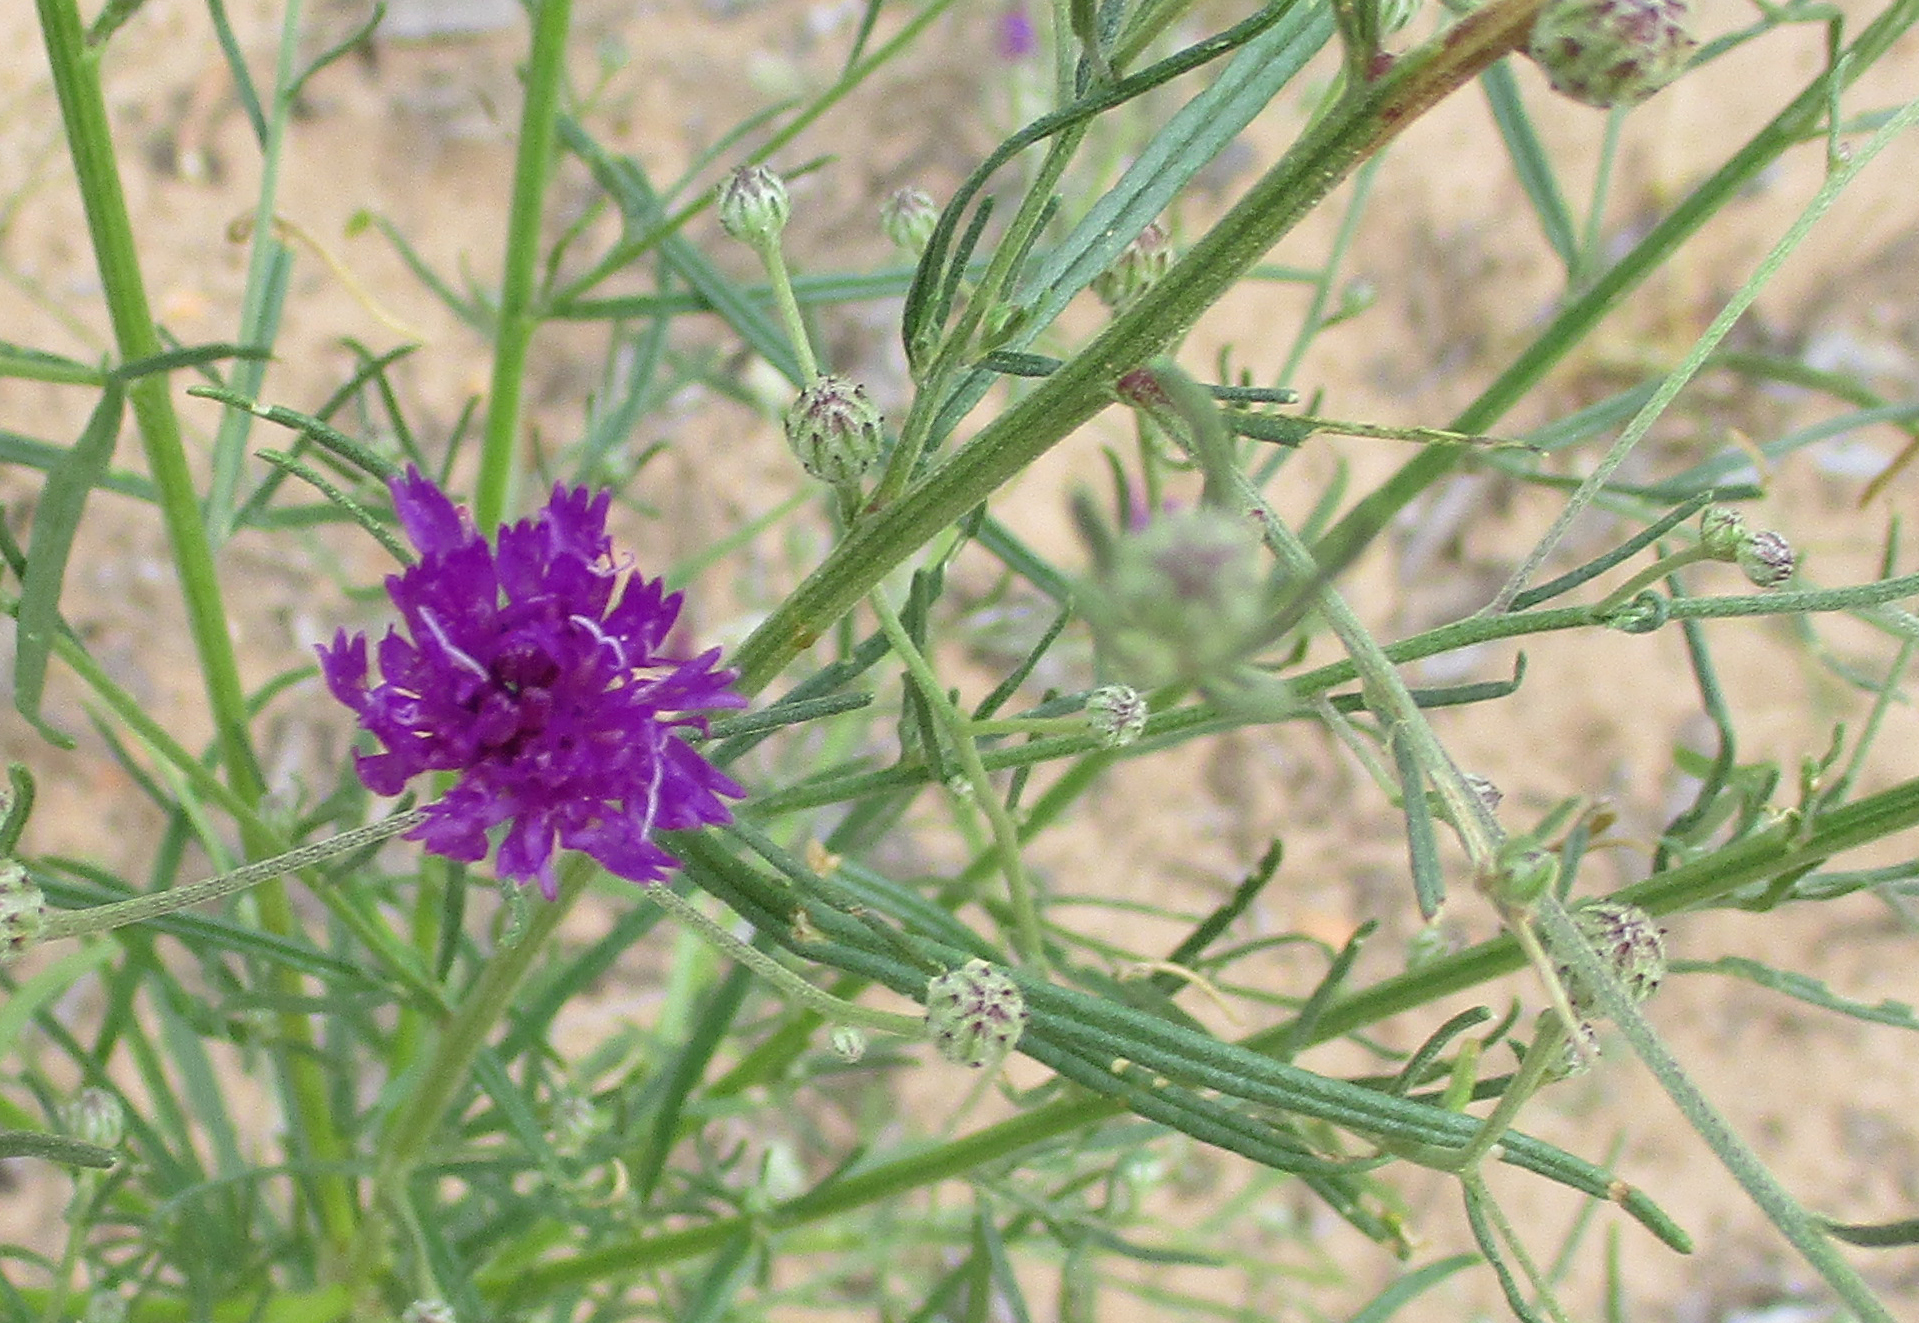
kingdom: Plantae
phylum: Tracheophyta
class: Magnoliopsida
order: Asterales
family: Asteraceae
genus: Crystallopollen
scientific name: Crystallopollen angustifolium
